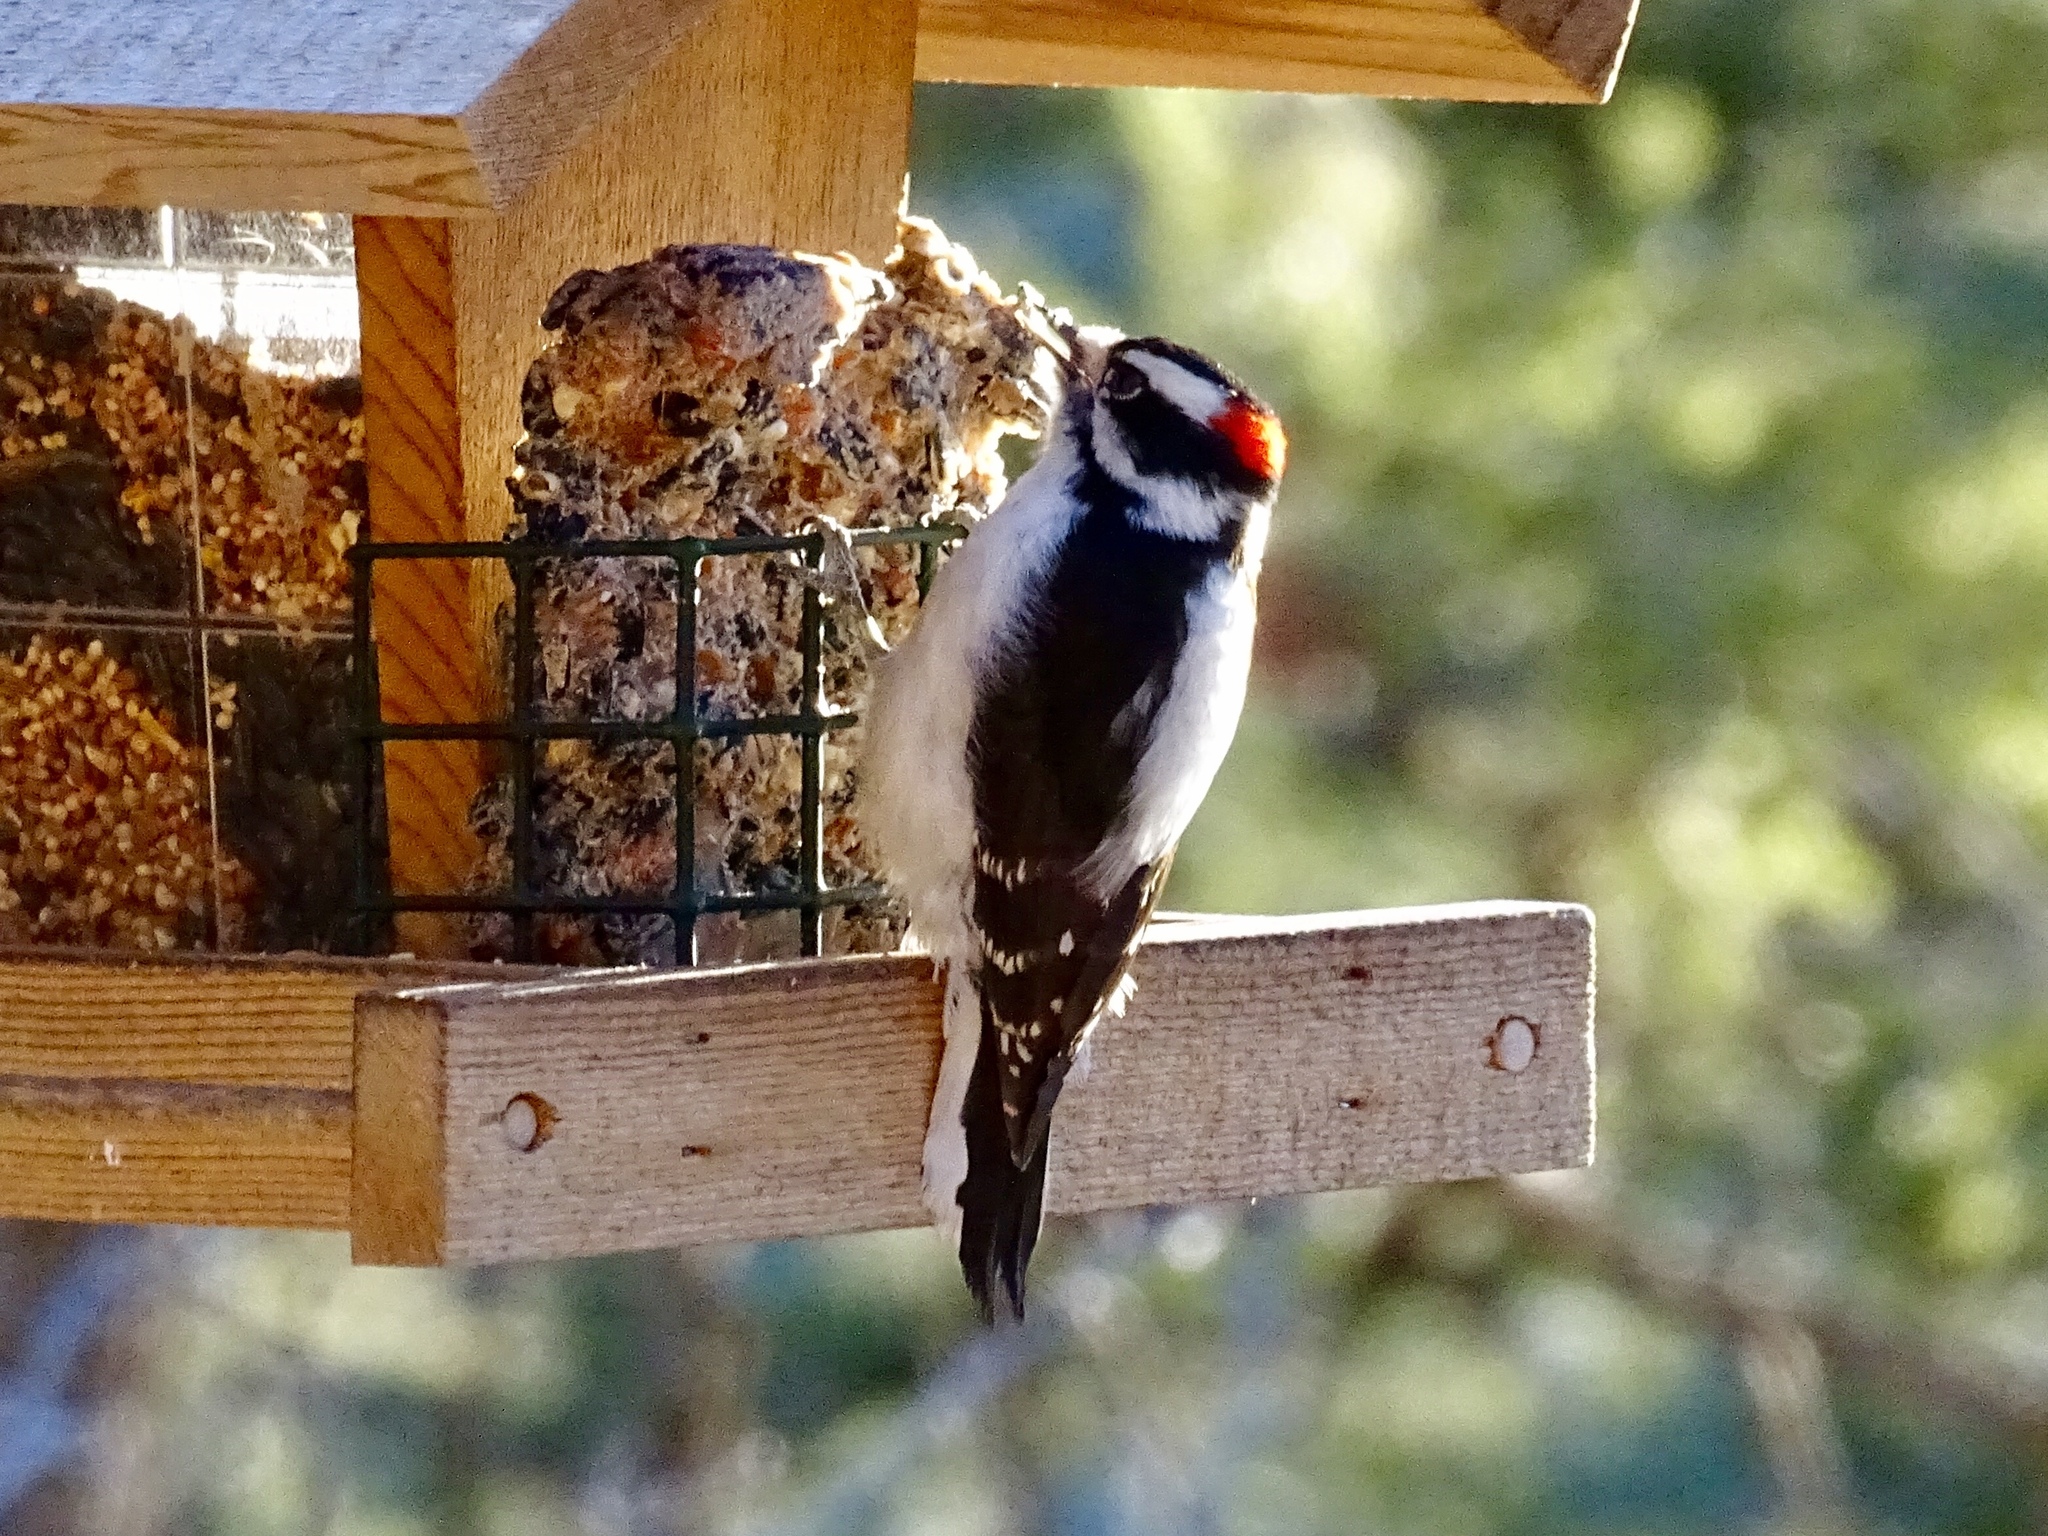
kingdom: Animalia
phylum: Chordata
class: Aves
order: Piciformes
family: Picidae
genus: Dryobates
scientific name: Dryobates pubescens
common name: Downy woodpecker
